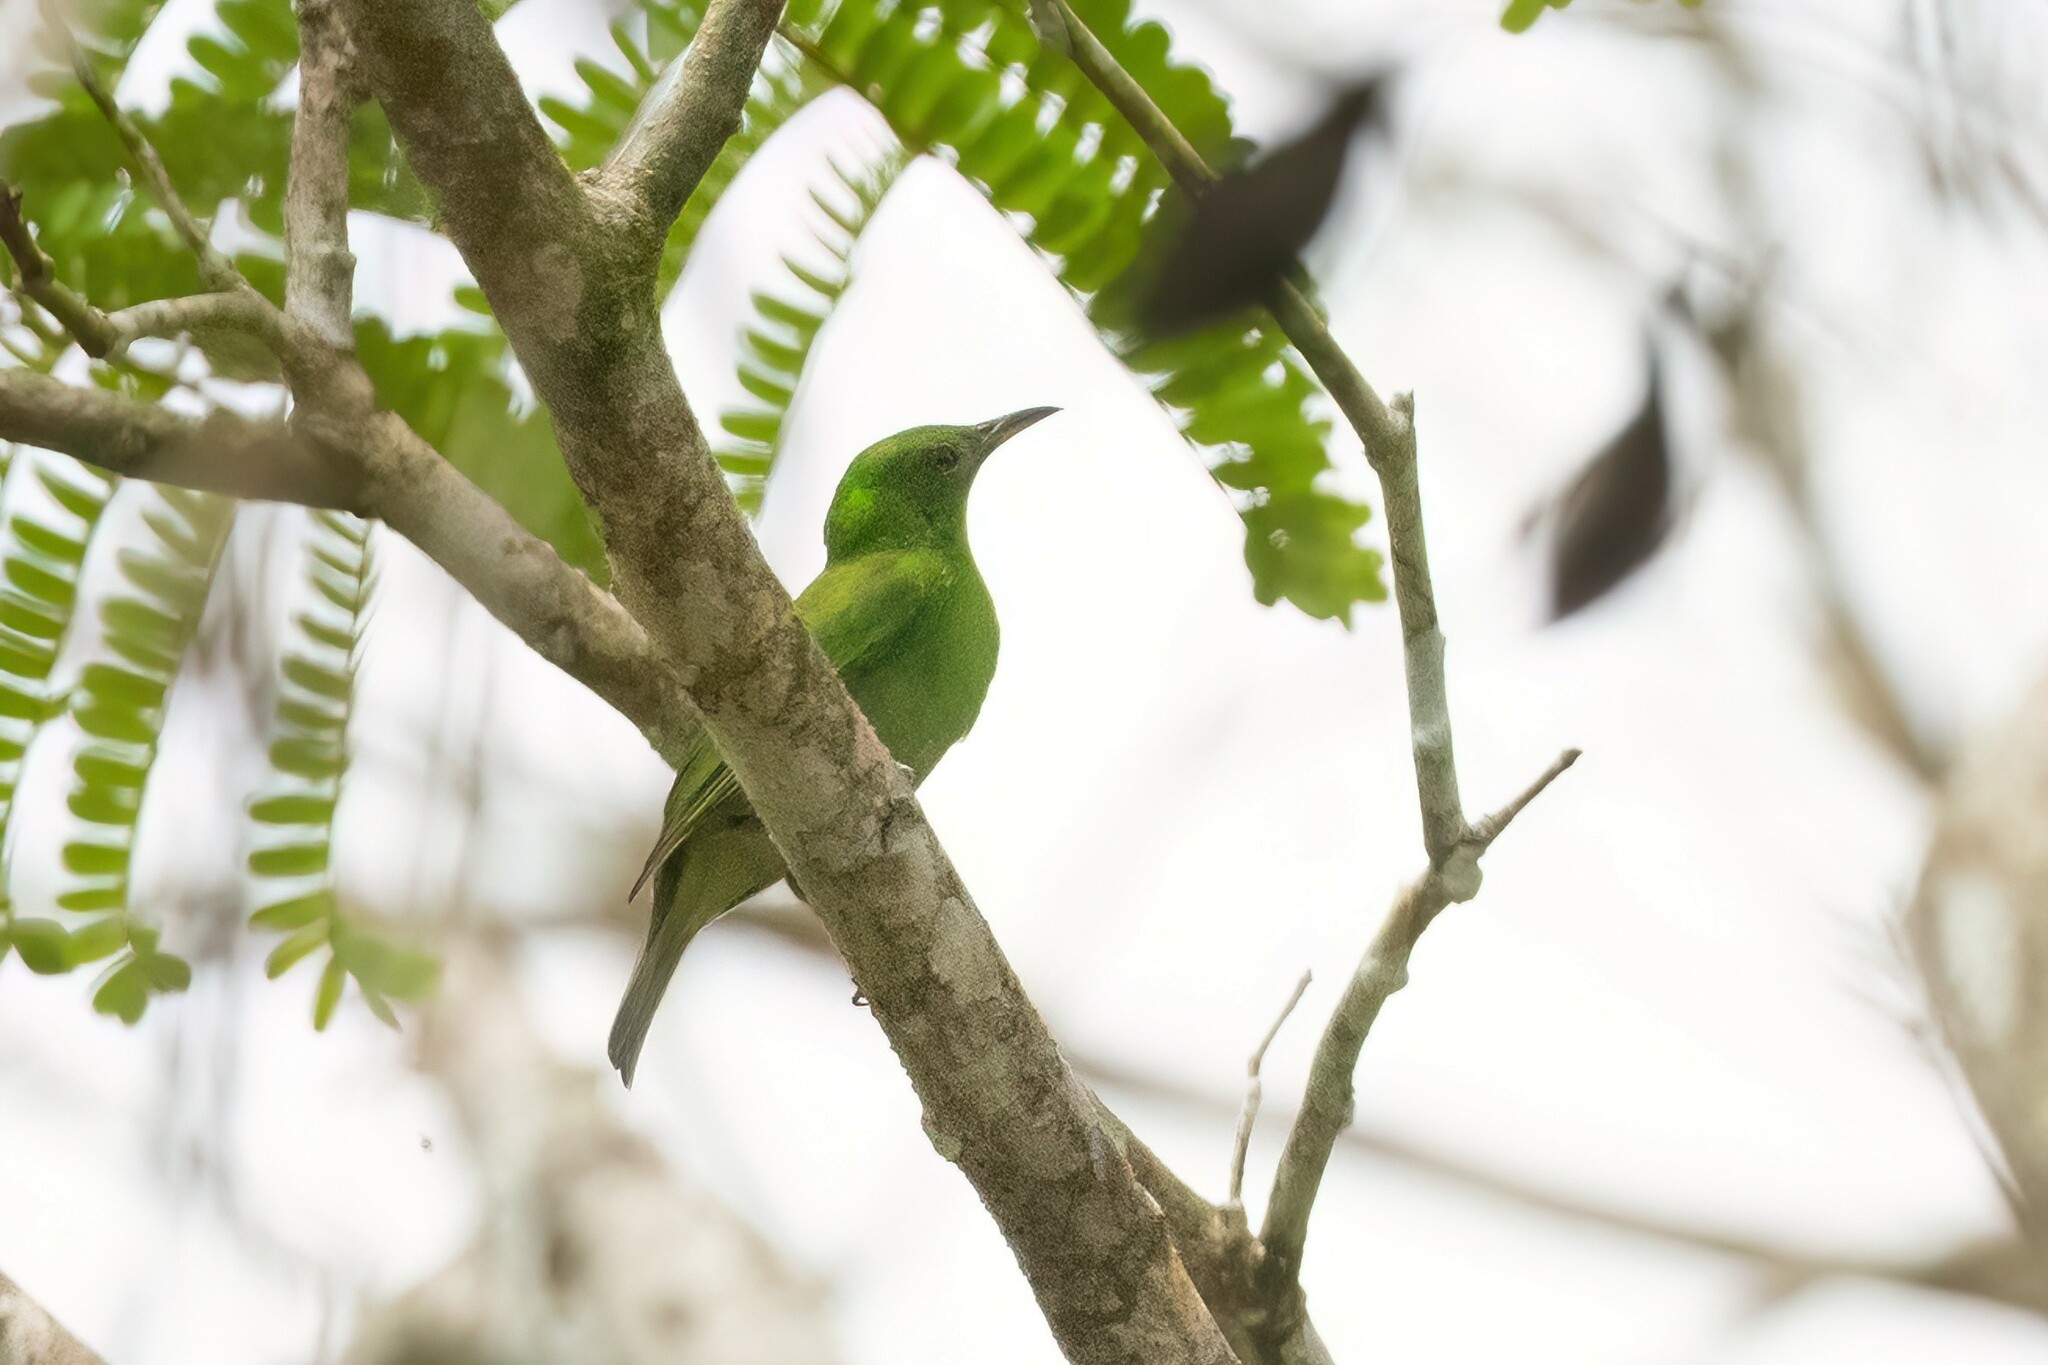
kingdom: Animalia
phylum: Chordata
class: Aves
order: Passeriformes
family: Thraupidae
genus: Chlorophanes
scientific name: Chlorophanes spiza
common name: Green honeycreeper
